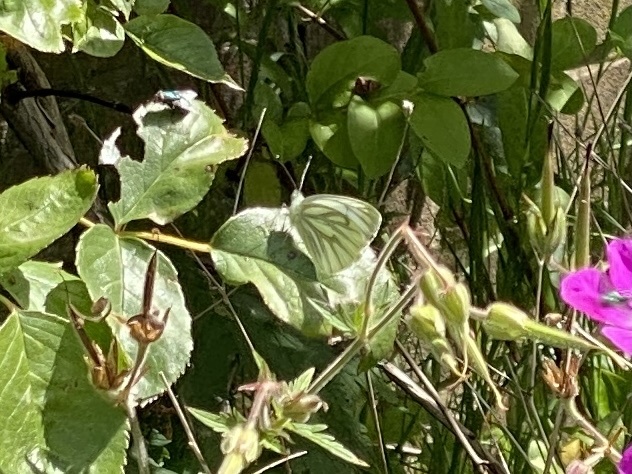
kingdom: Animalia
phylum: Arthropoda
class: Insecta
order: Lepidoptera
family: Pieridae
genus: Pieris
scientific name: Pieris napi
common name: Green-veined white
